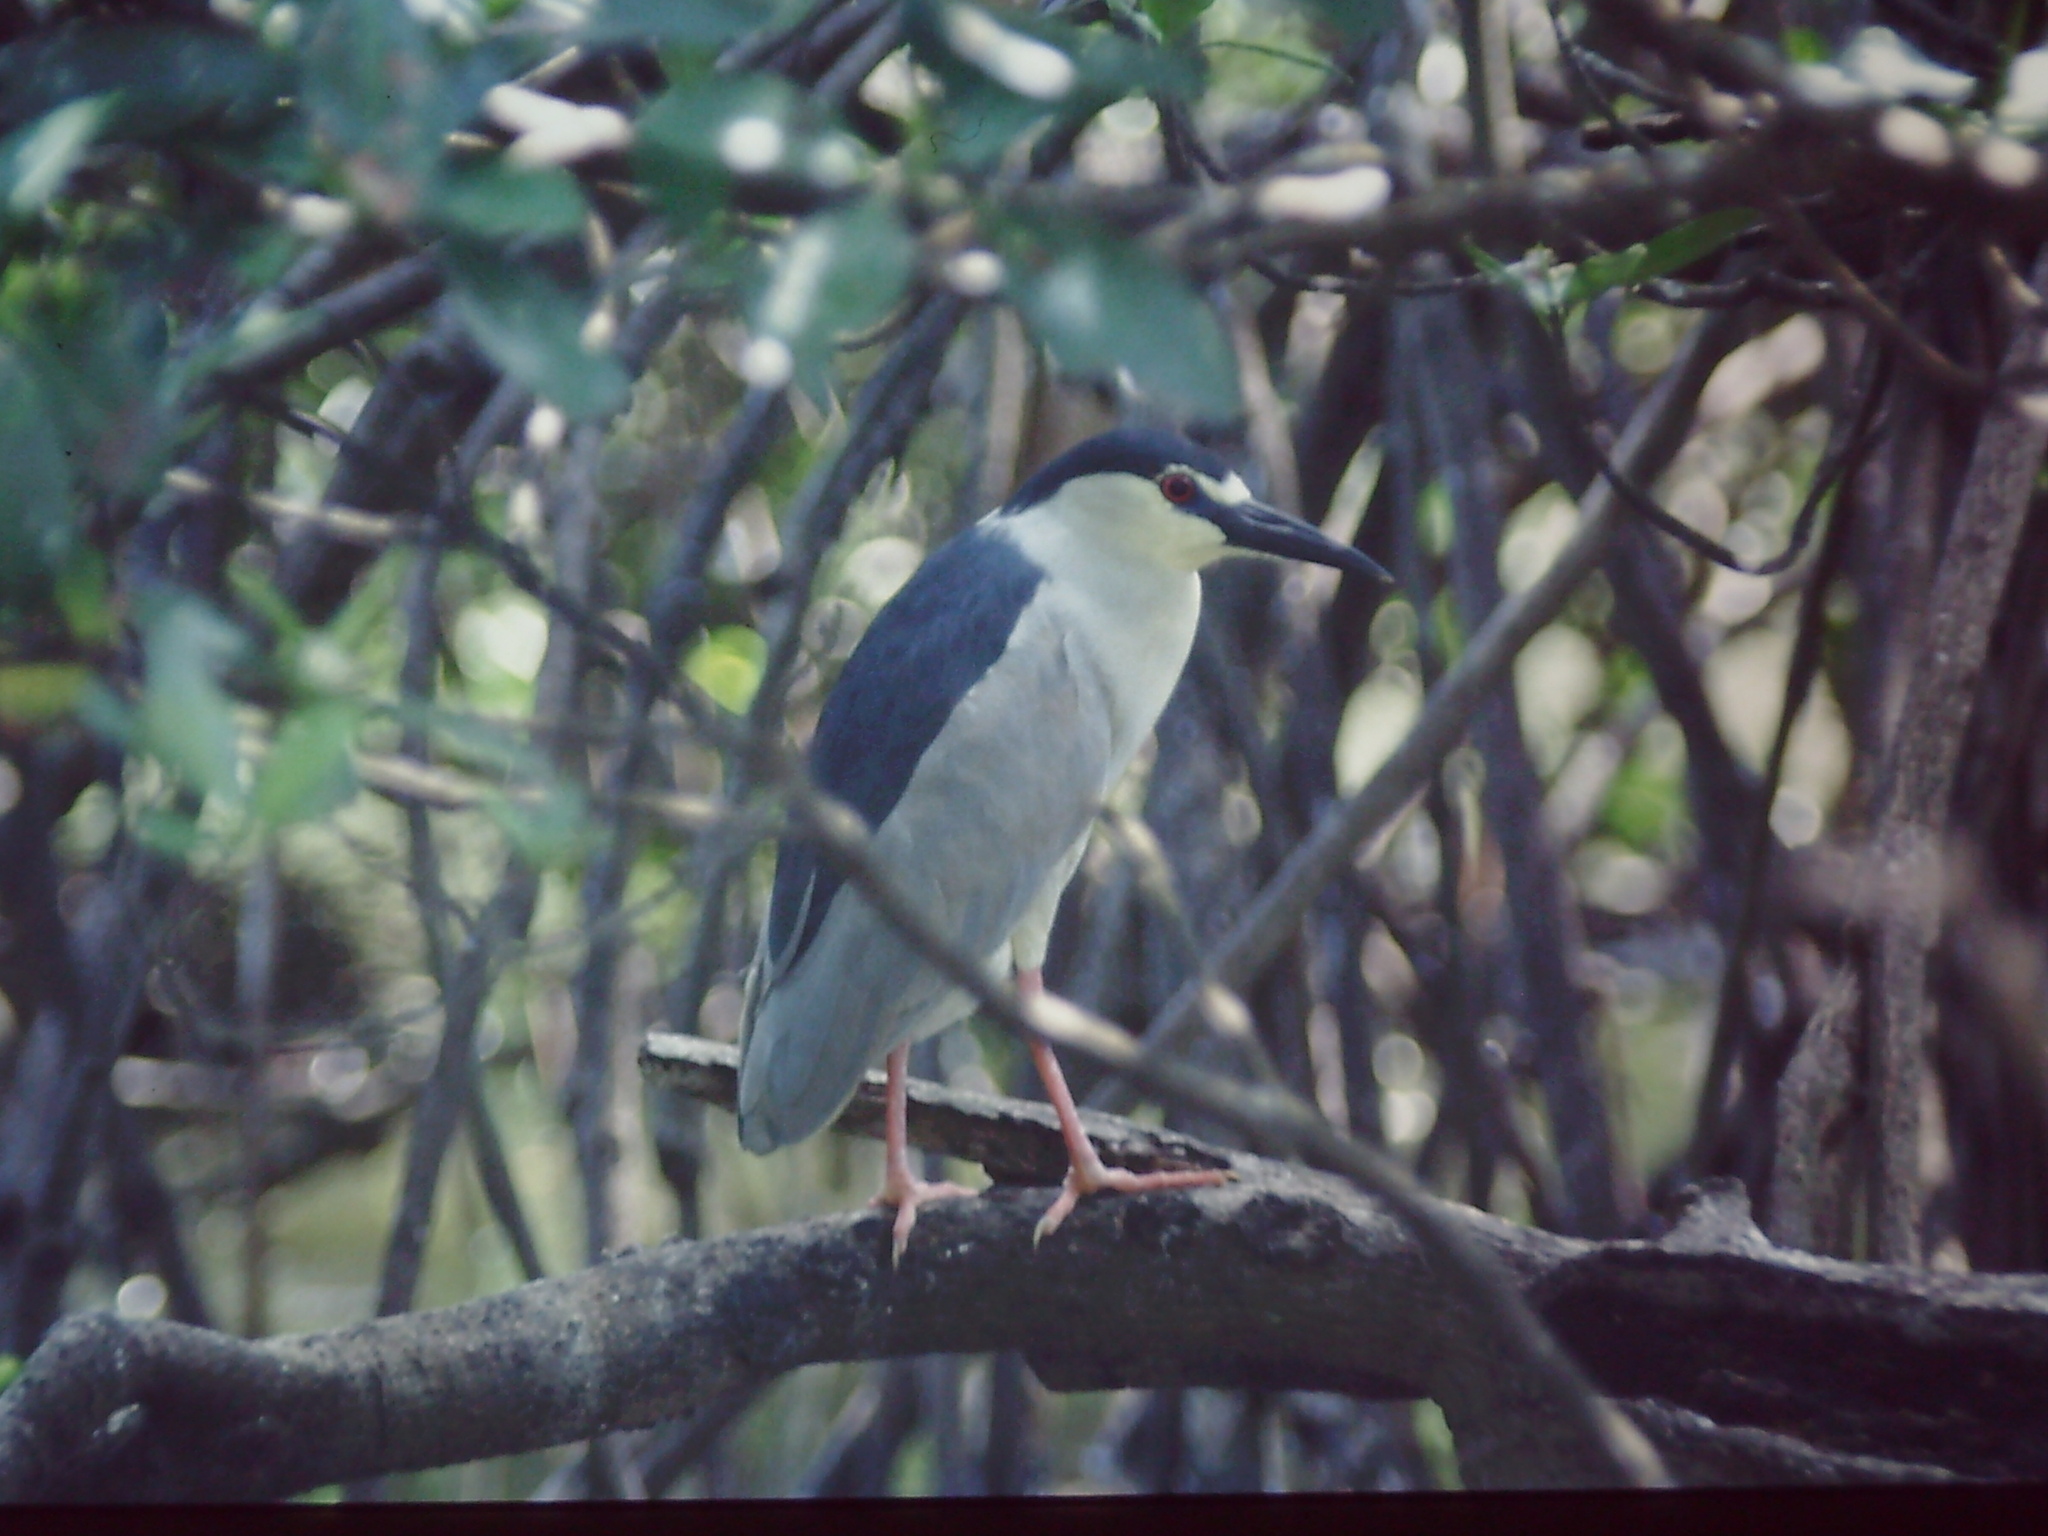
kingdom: Animalia
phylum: Chordata
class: Aves
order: Pelecaniformes
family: Ardeidae
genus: Nycticorax
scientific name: Nycticorax nycticorax
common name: Black-crowned night heron
